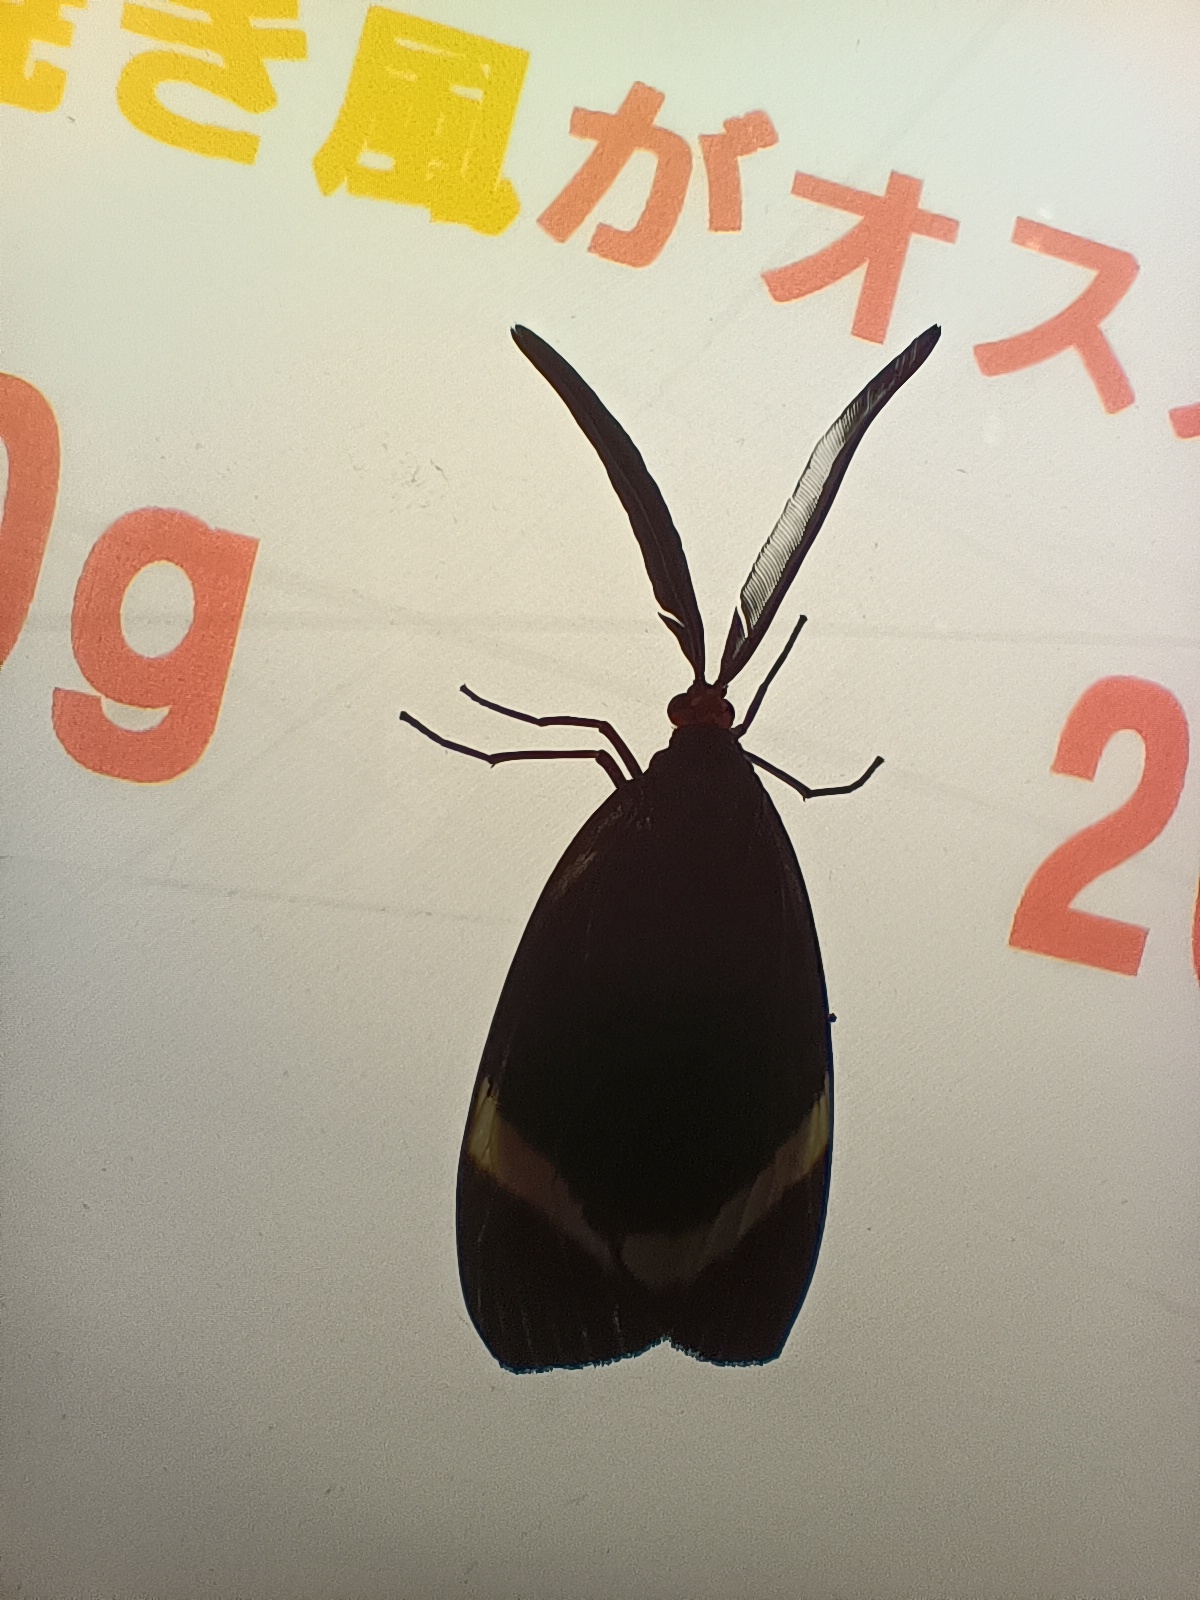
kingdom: Animalia
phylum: Arthropoda
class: Insecta
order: Lepidoptera
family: Zygaenidae
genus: Pidorus
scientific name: Pidorus glaucopis
